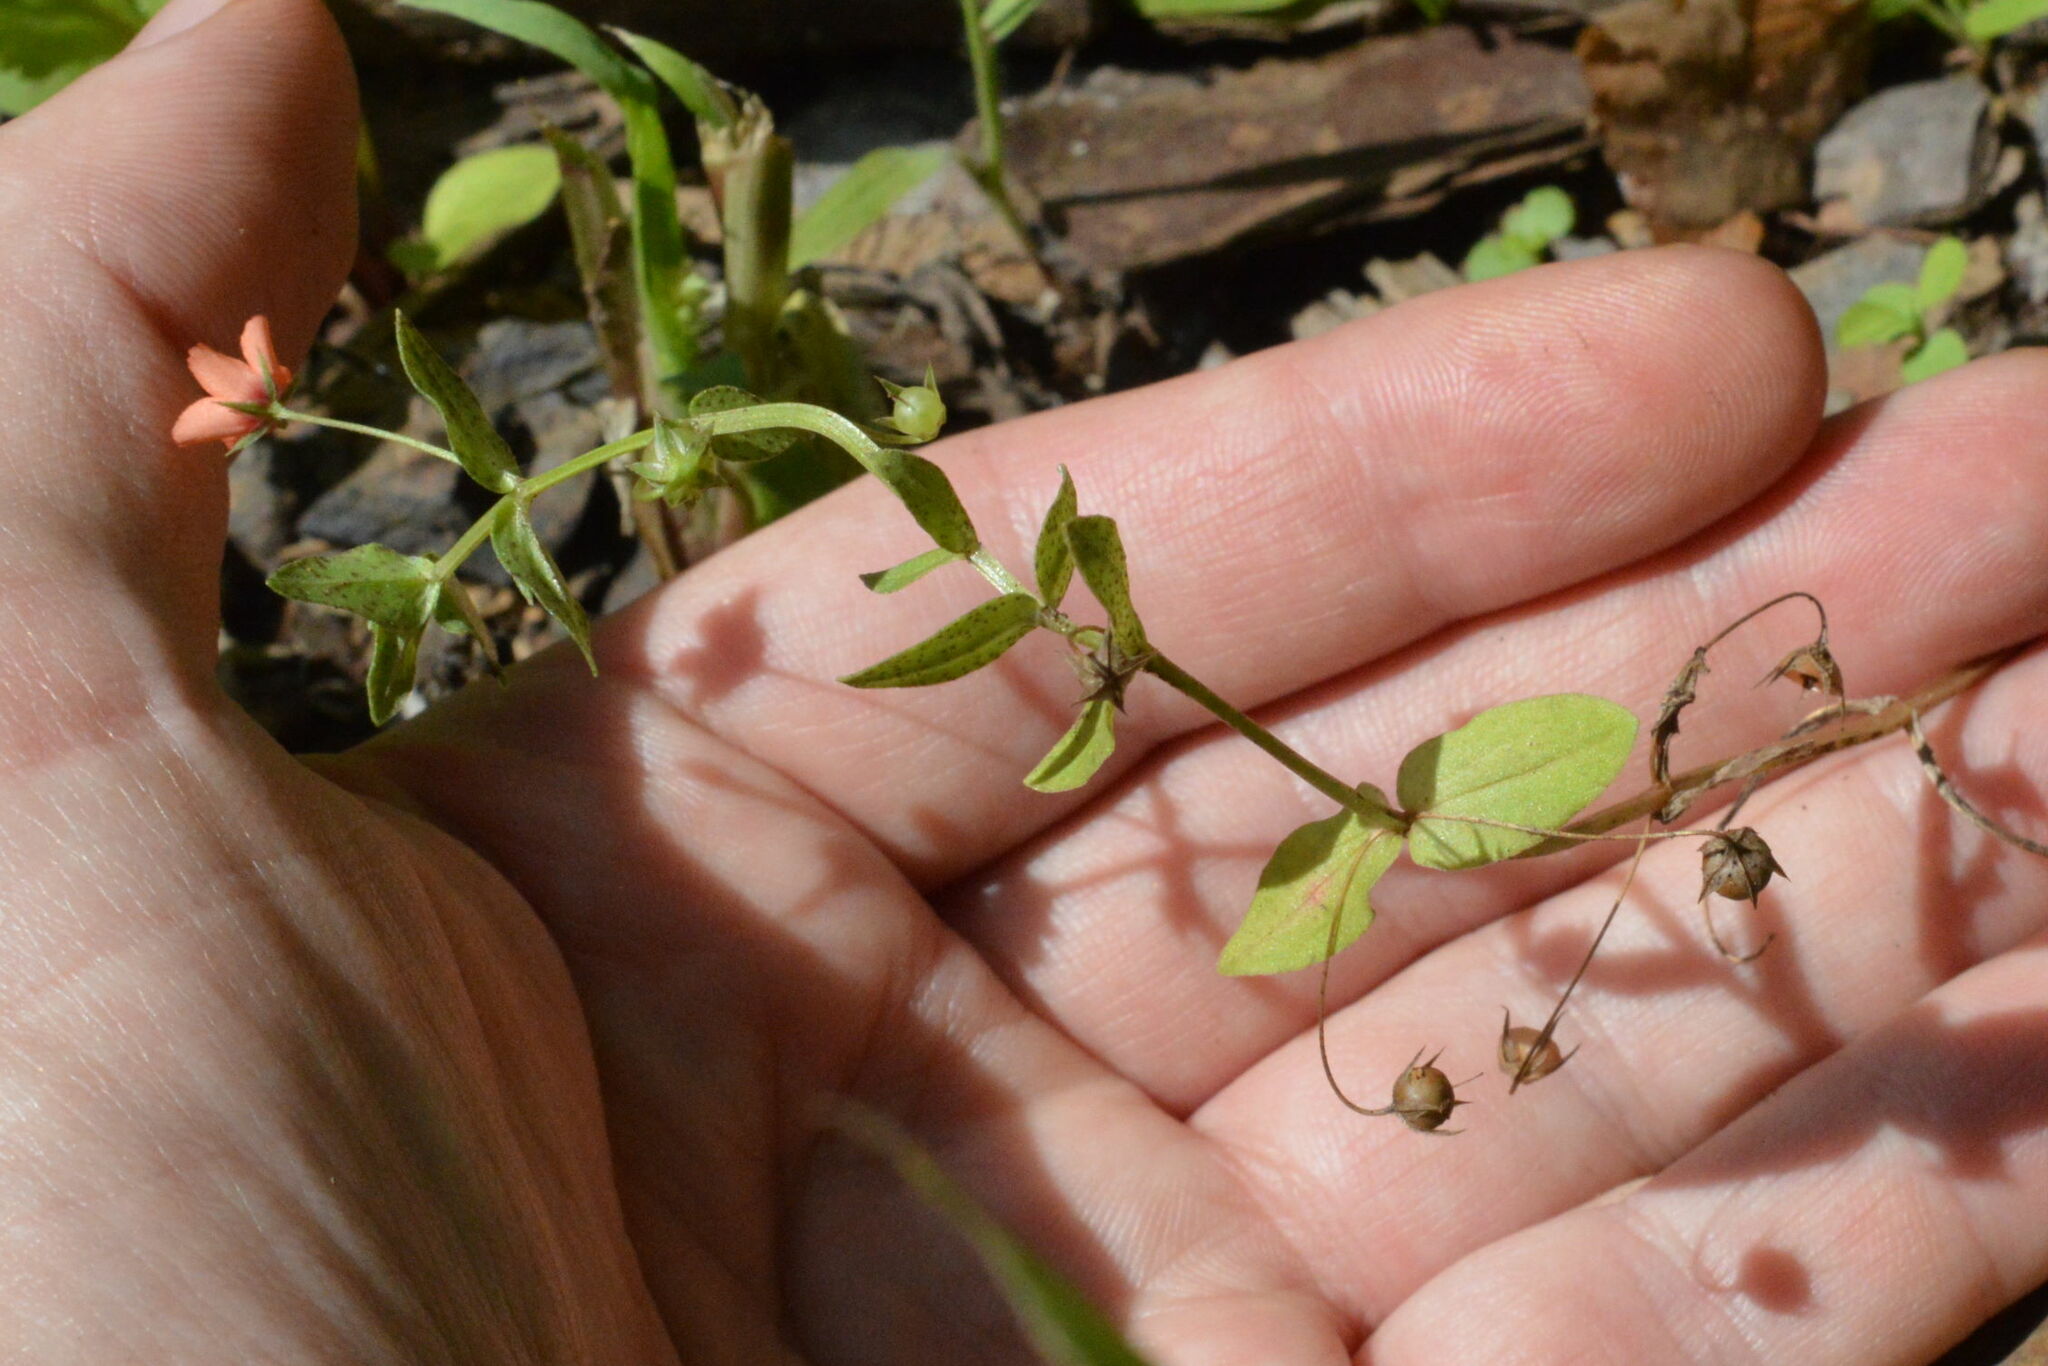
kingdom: Plantae
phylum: Tracheophyta
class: Magnoliopsida
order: Ericales
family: Primulaceae
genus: Lysimachia
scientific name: Lysimachia arvensis
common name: Scarlet pimpernel
